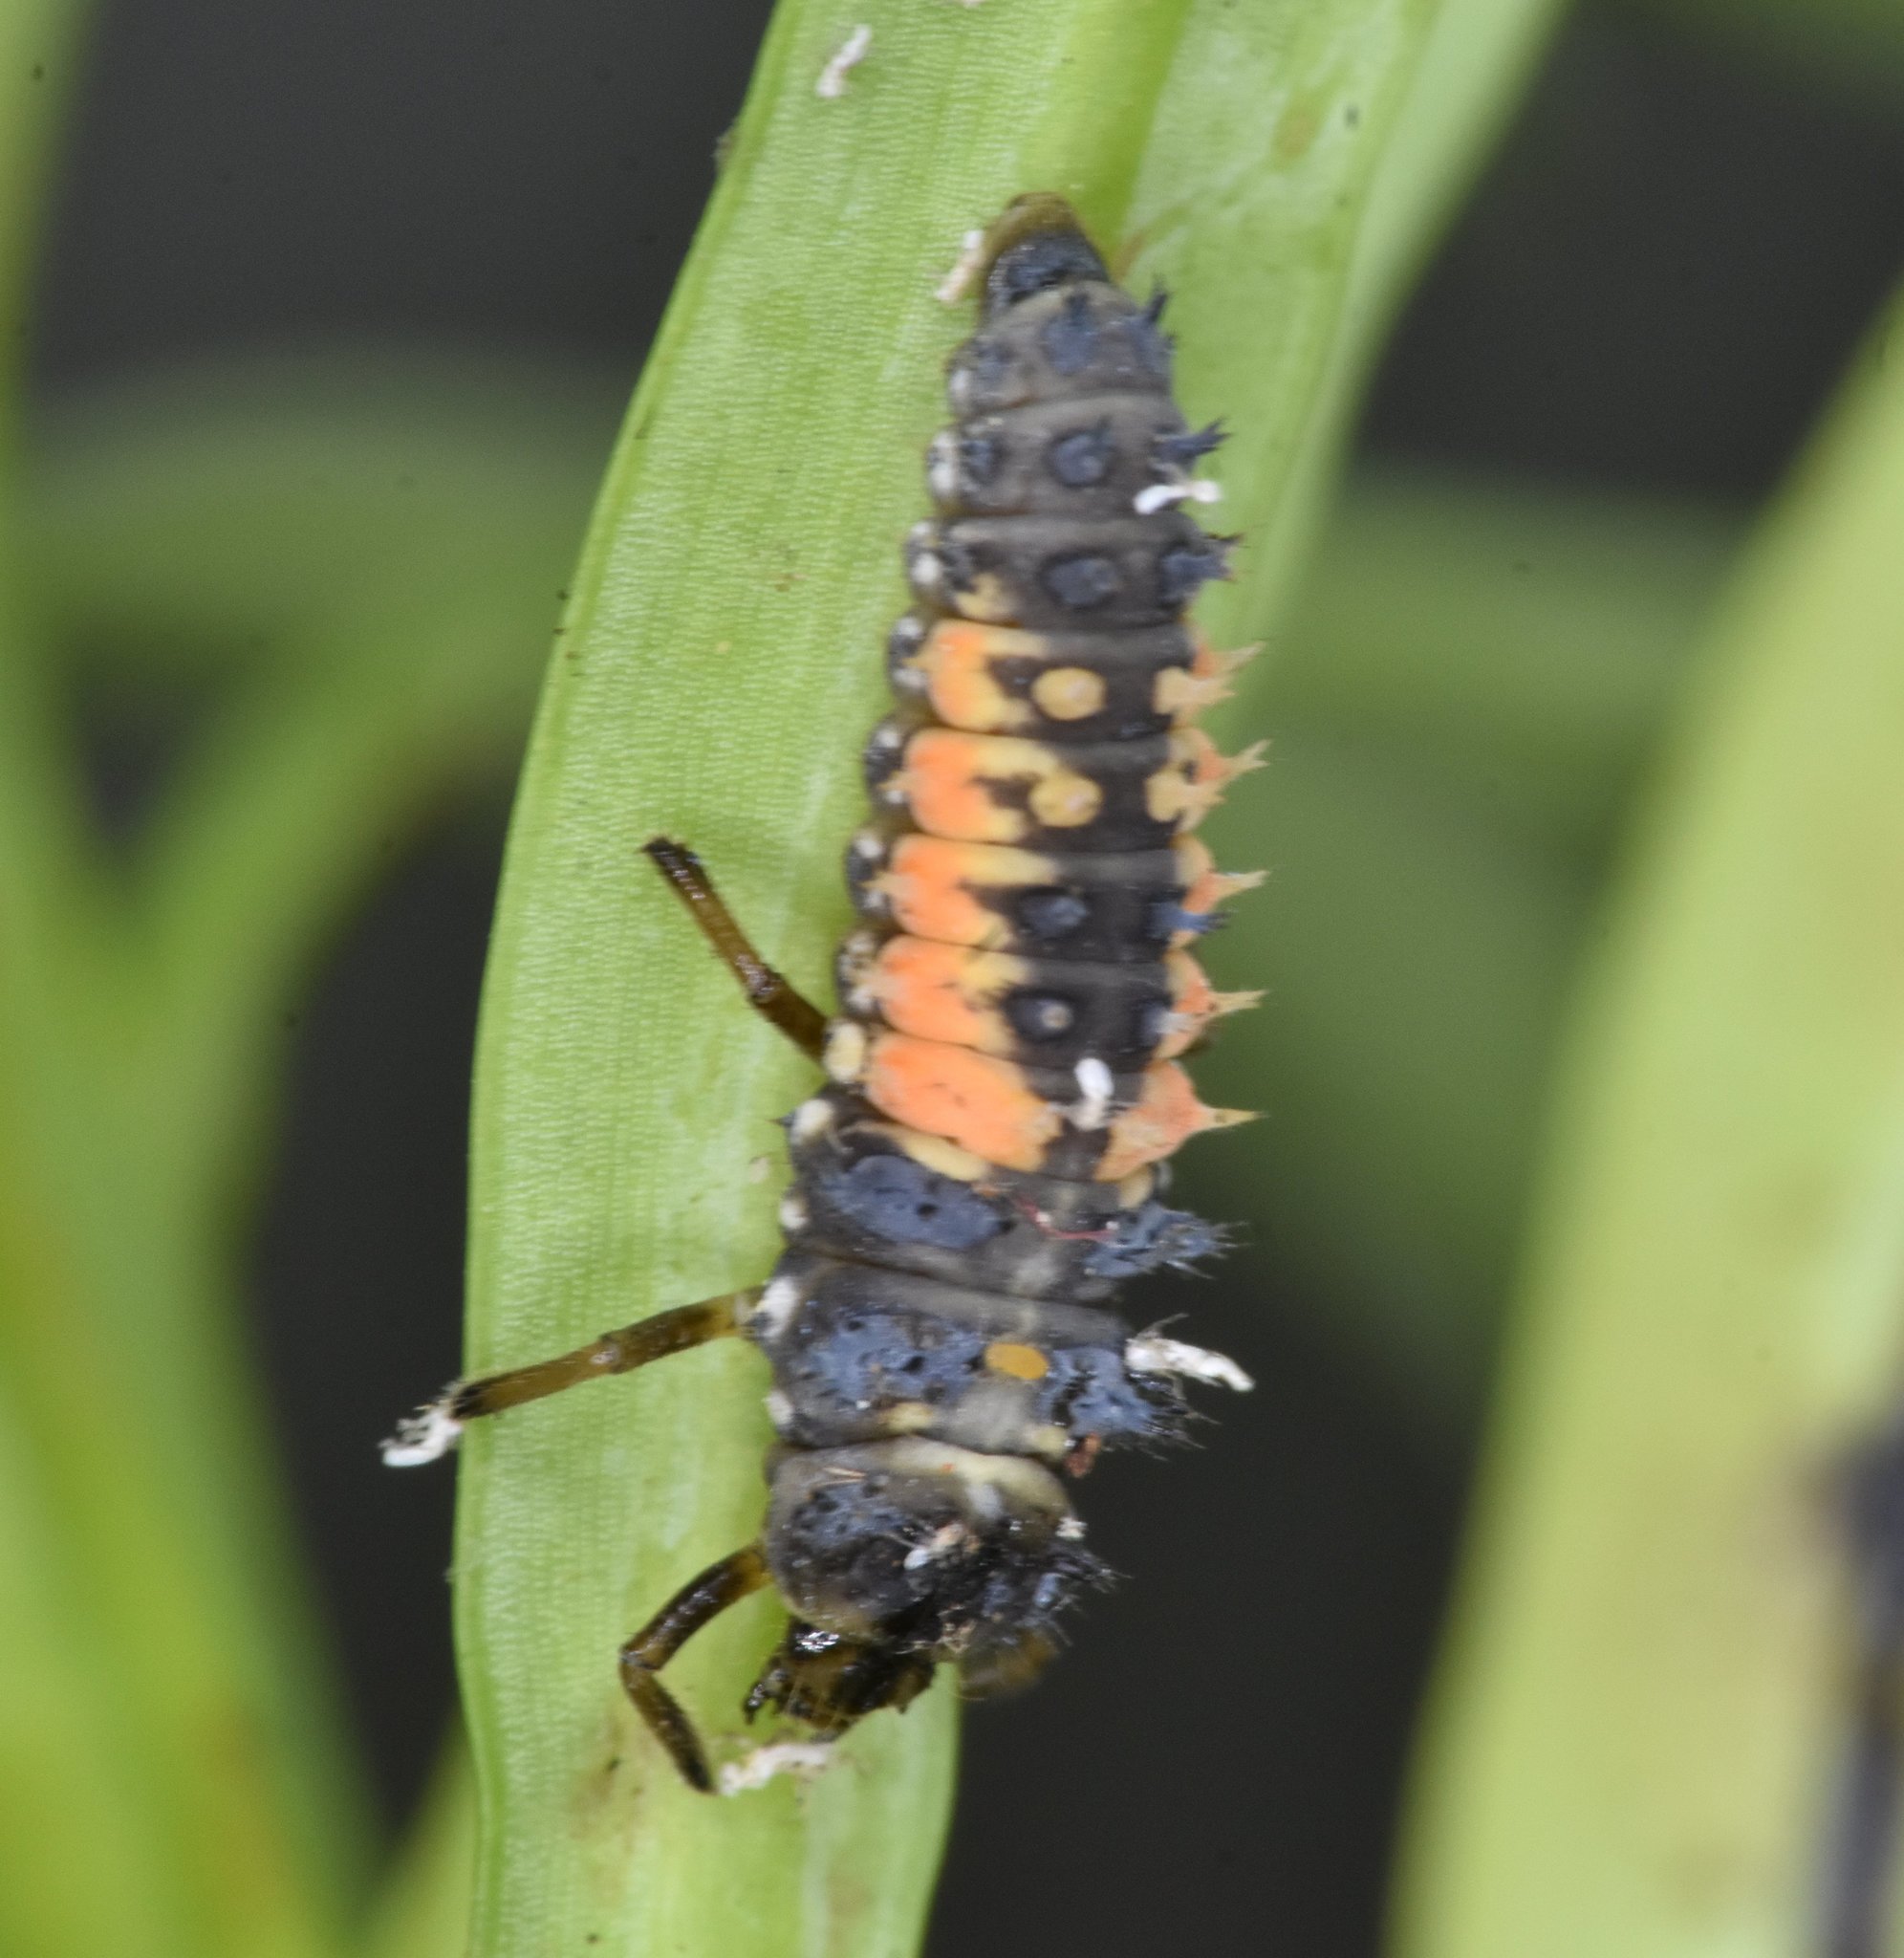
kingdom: Animalia
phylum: Arthropoda
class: Insecta
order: Coleoptera
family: Coccinellidae
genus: Harmonia
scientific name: Harmonia axyridis
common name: Harlequin ladybird
